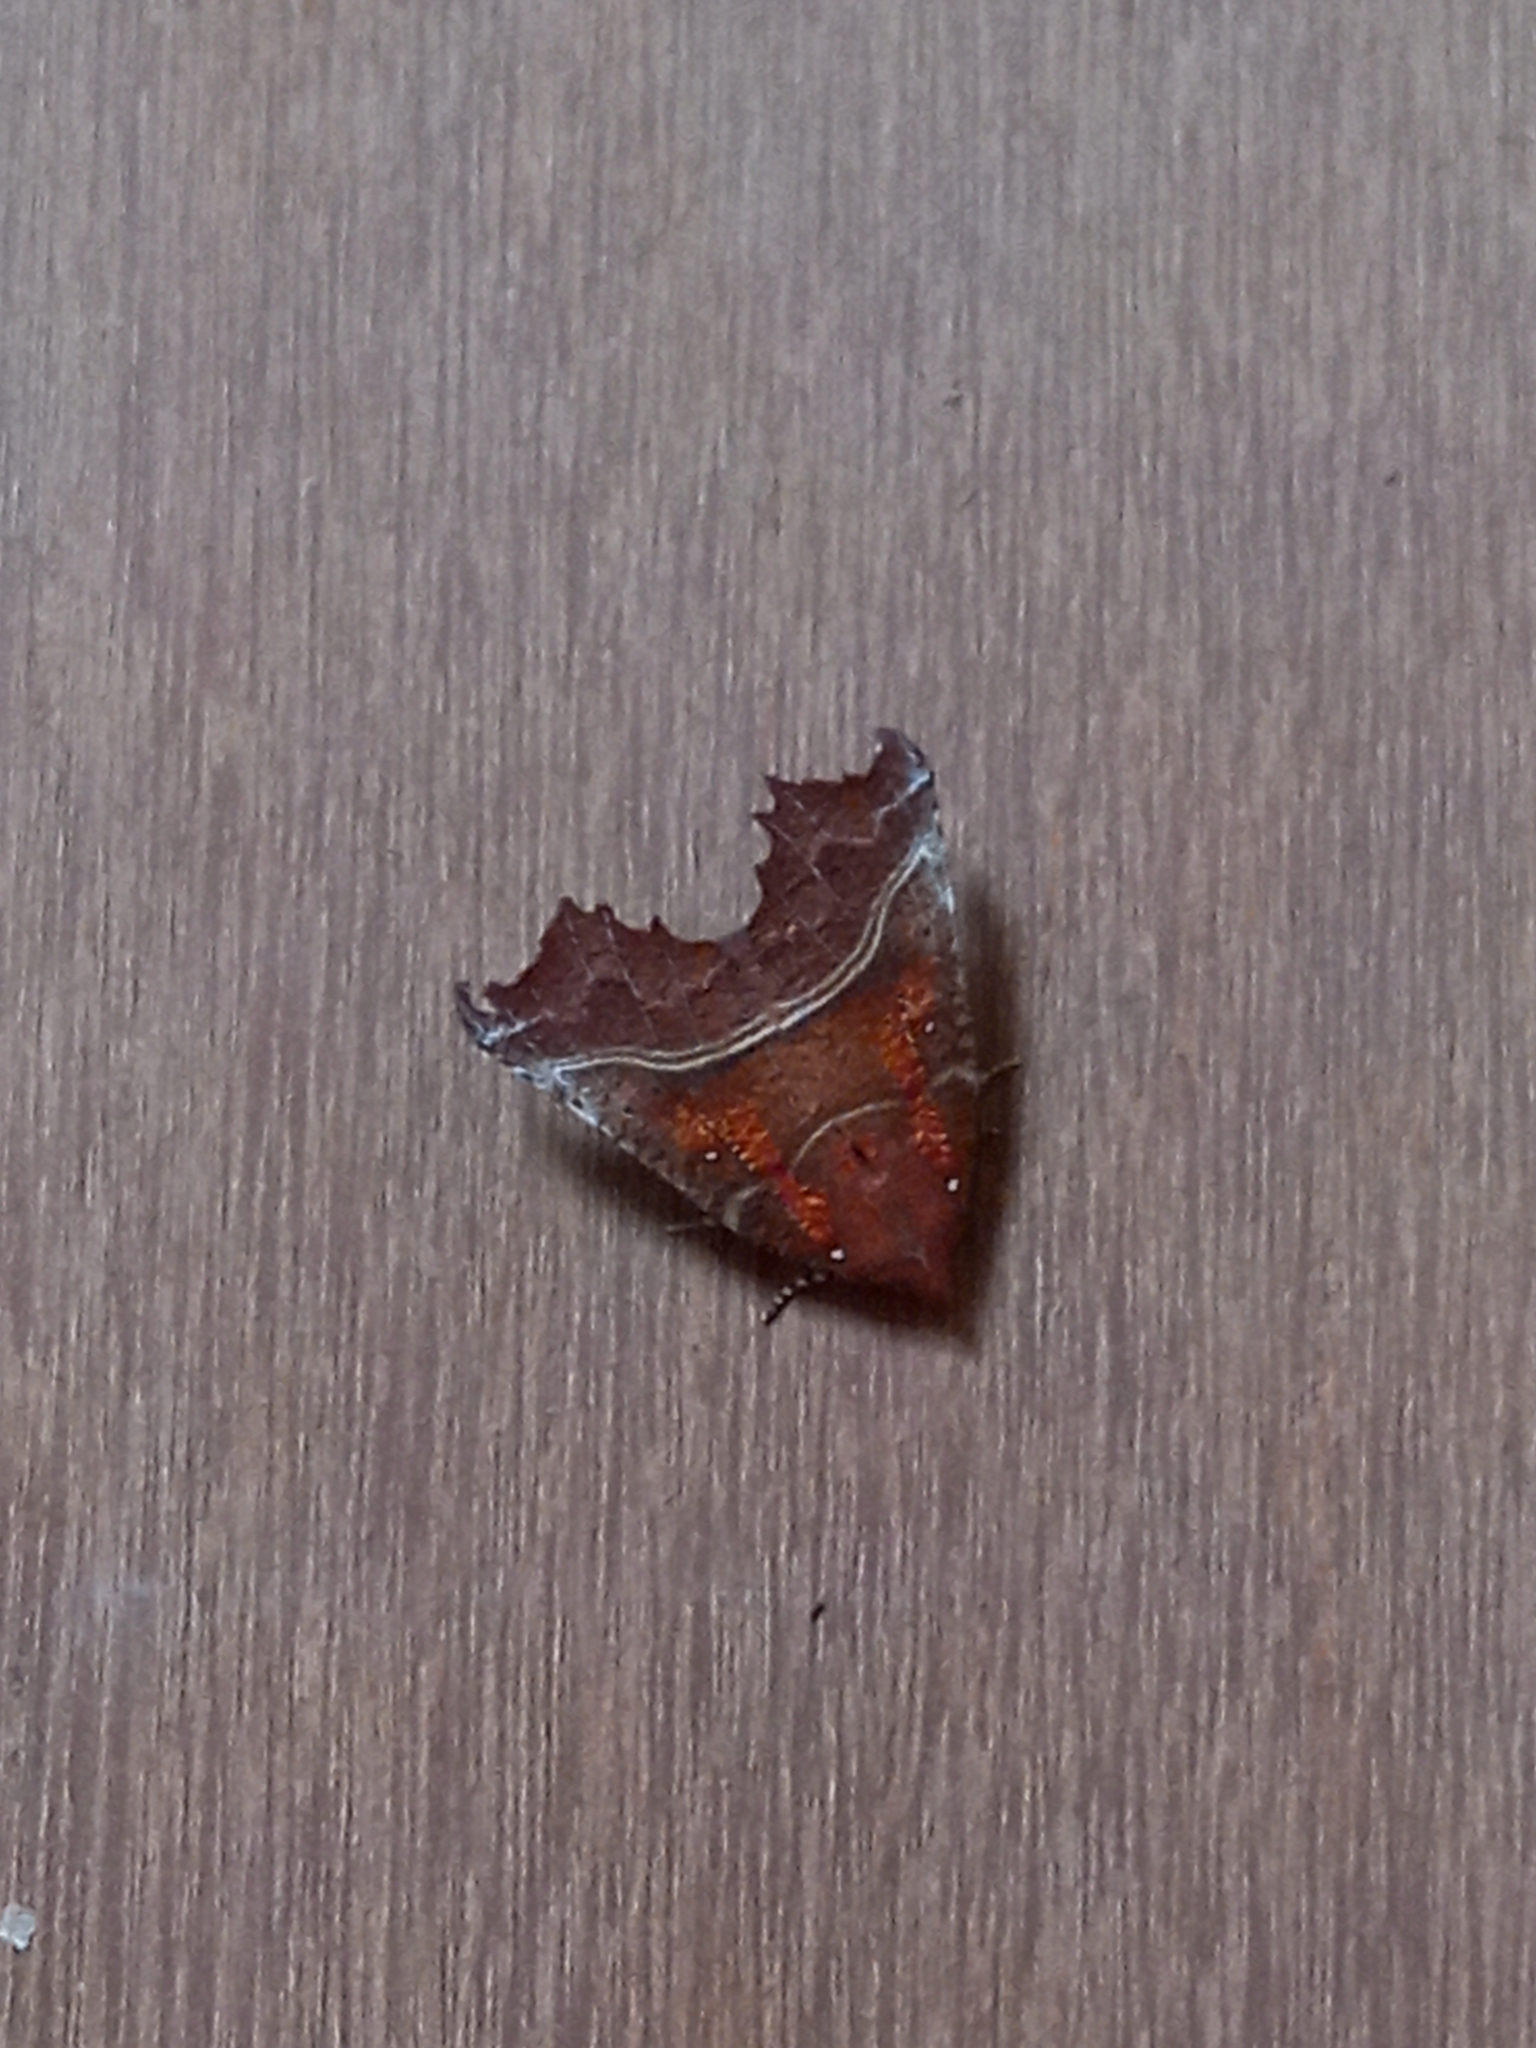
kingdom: Animalia
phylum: Arthropoda
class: Insecta
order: Lepidoptera
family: Erebidae
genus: Scoliopteryx
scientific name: Scoliopteryx libatrix
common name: Herald
